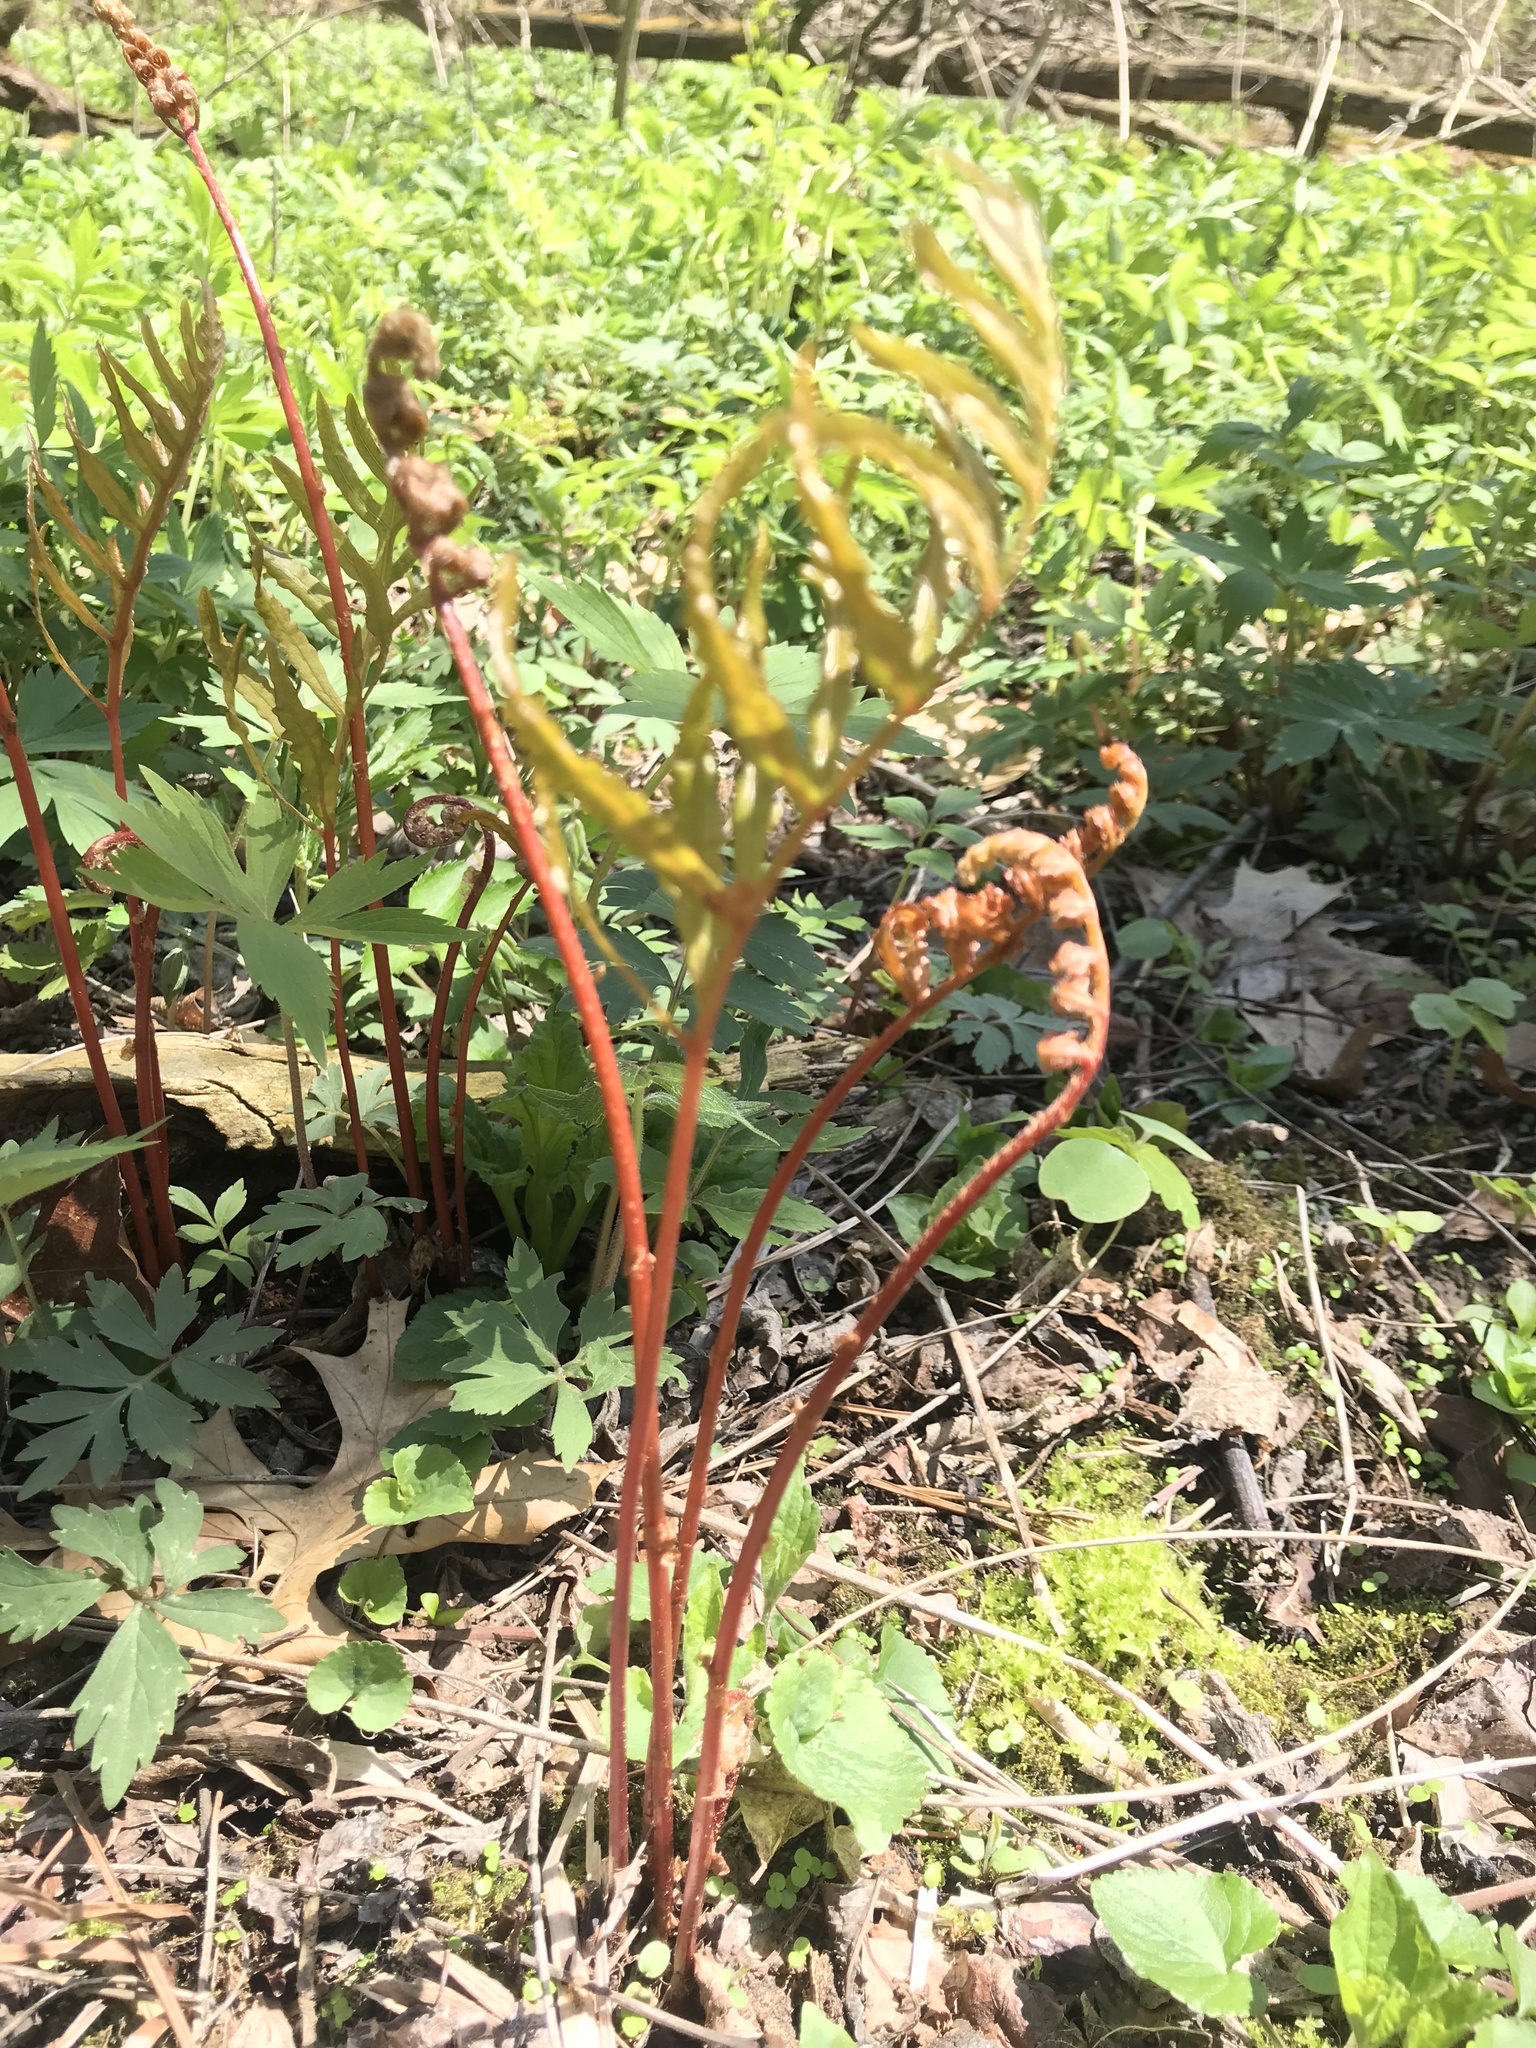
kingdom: Plantae
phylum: Tracheophyta
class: Polypodiopsida
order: Polypodiales
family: Onocleaceae
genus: Onoclea
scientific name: Onoclea sensibilis
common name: Sensitive fern
